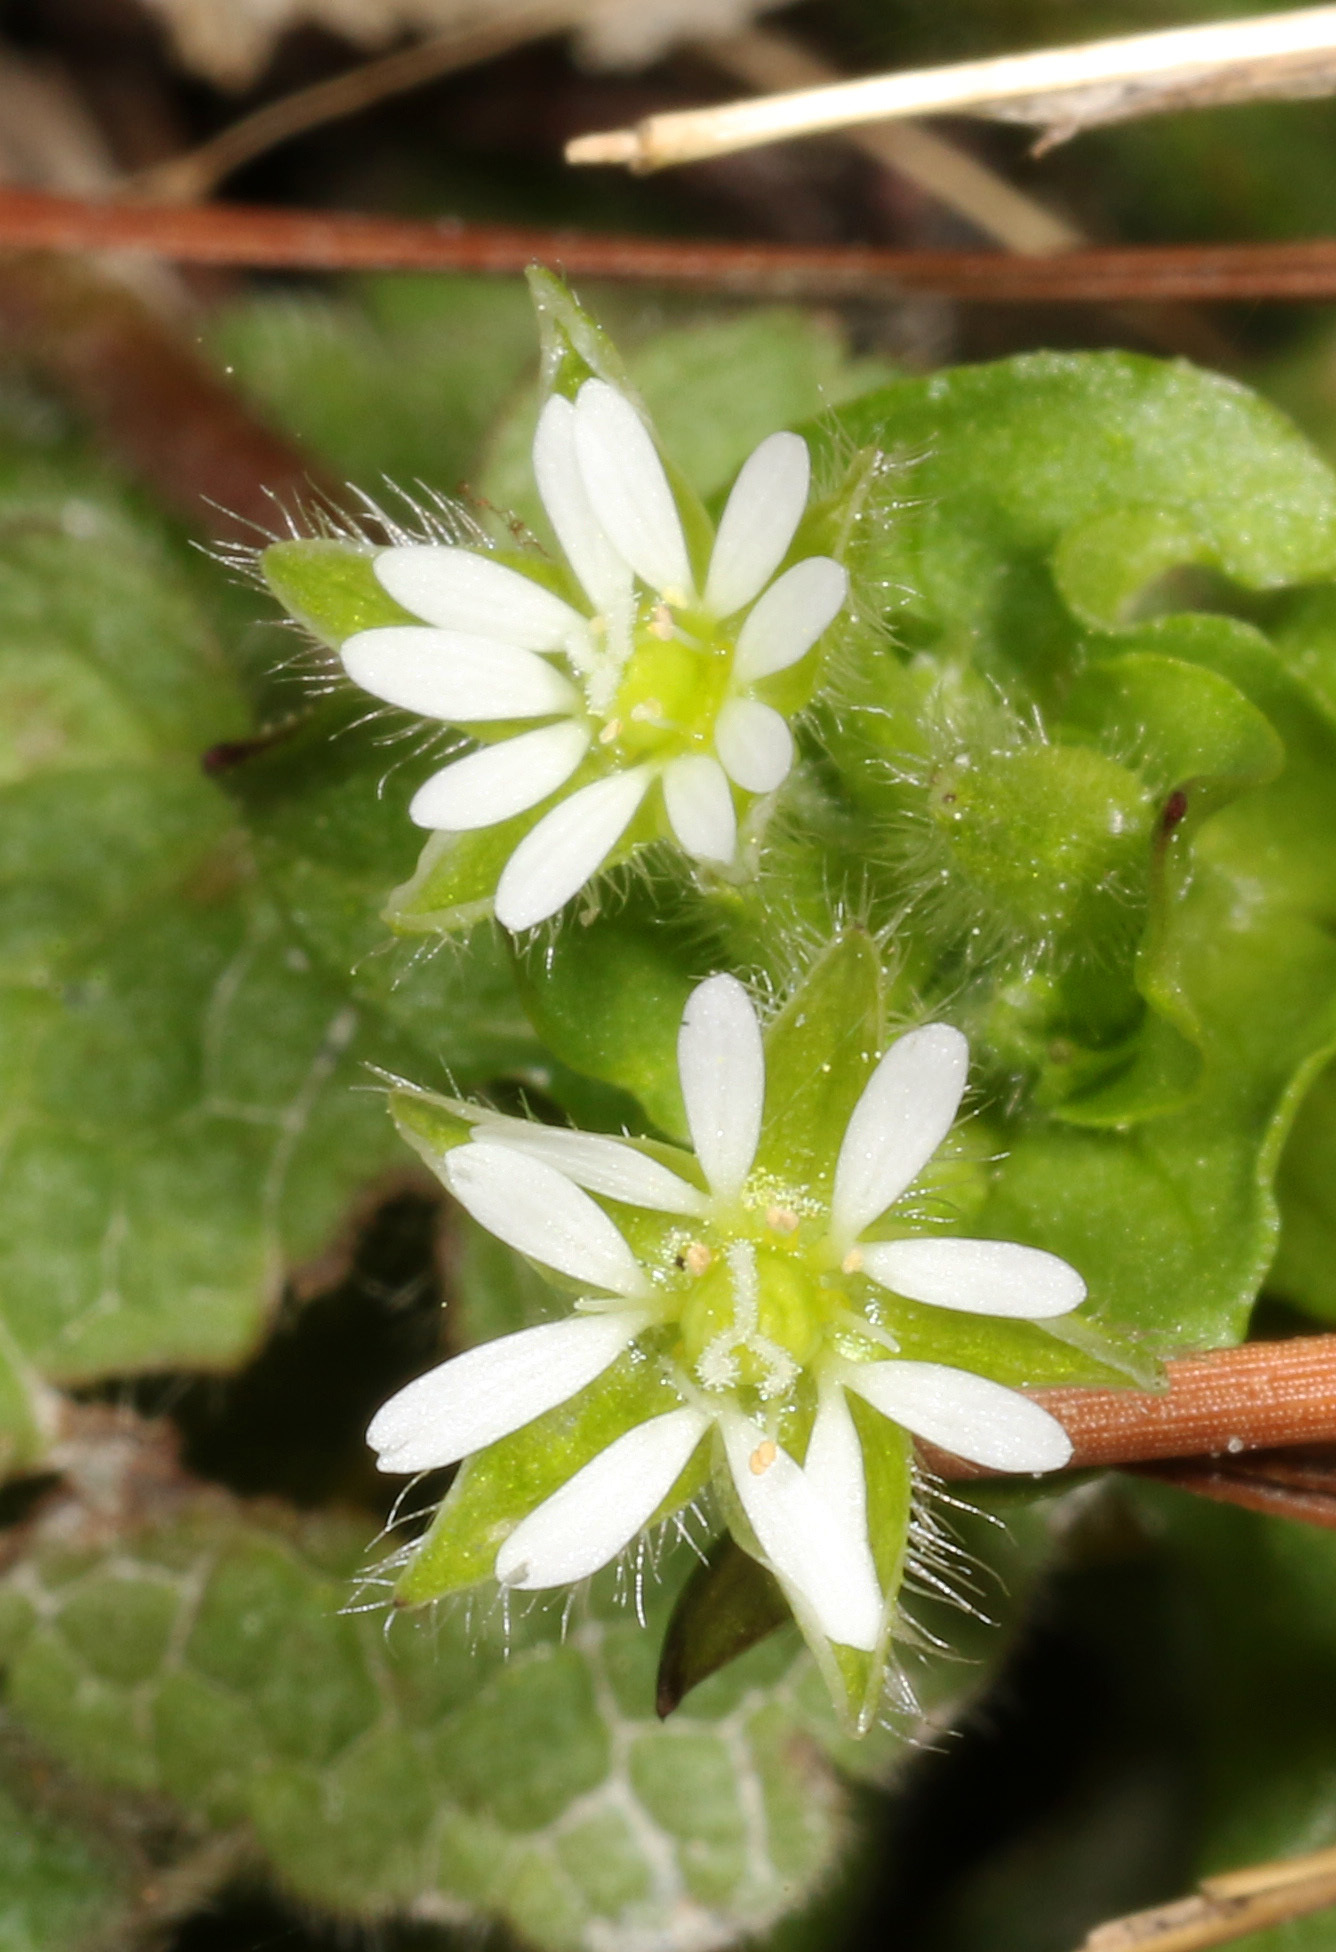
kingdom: Plantae
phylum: Tracheophyta
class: Magnoliopsida
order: Caryophyllales
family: Caryophyllaceae
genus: Stellaria
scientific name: Stellaria media
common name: Common chickweed
